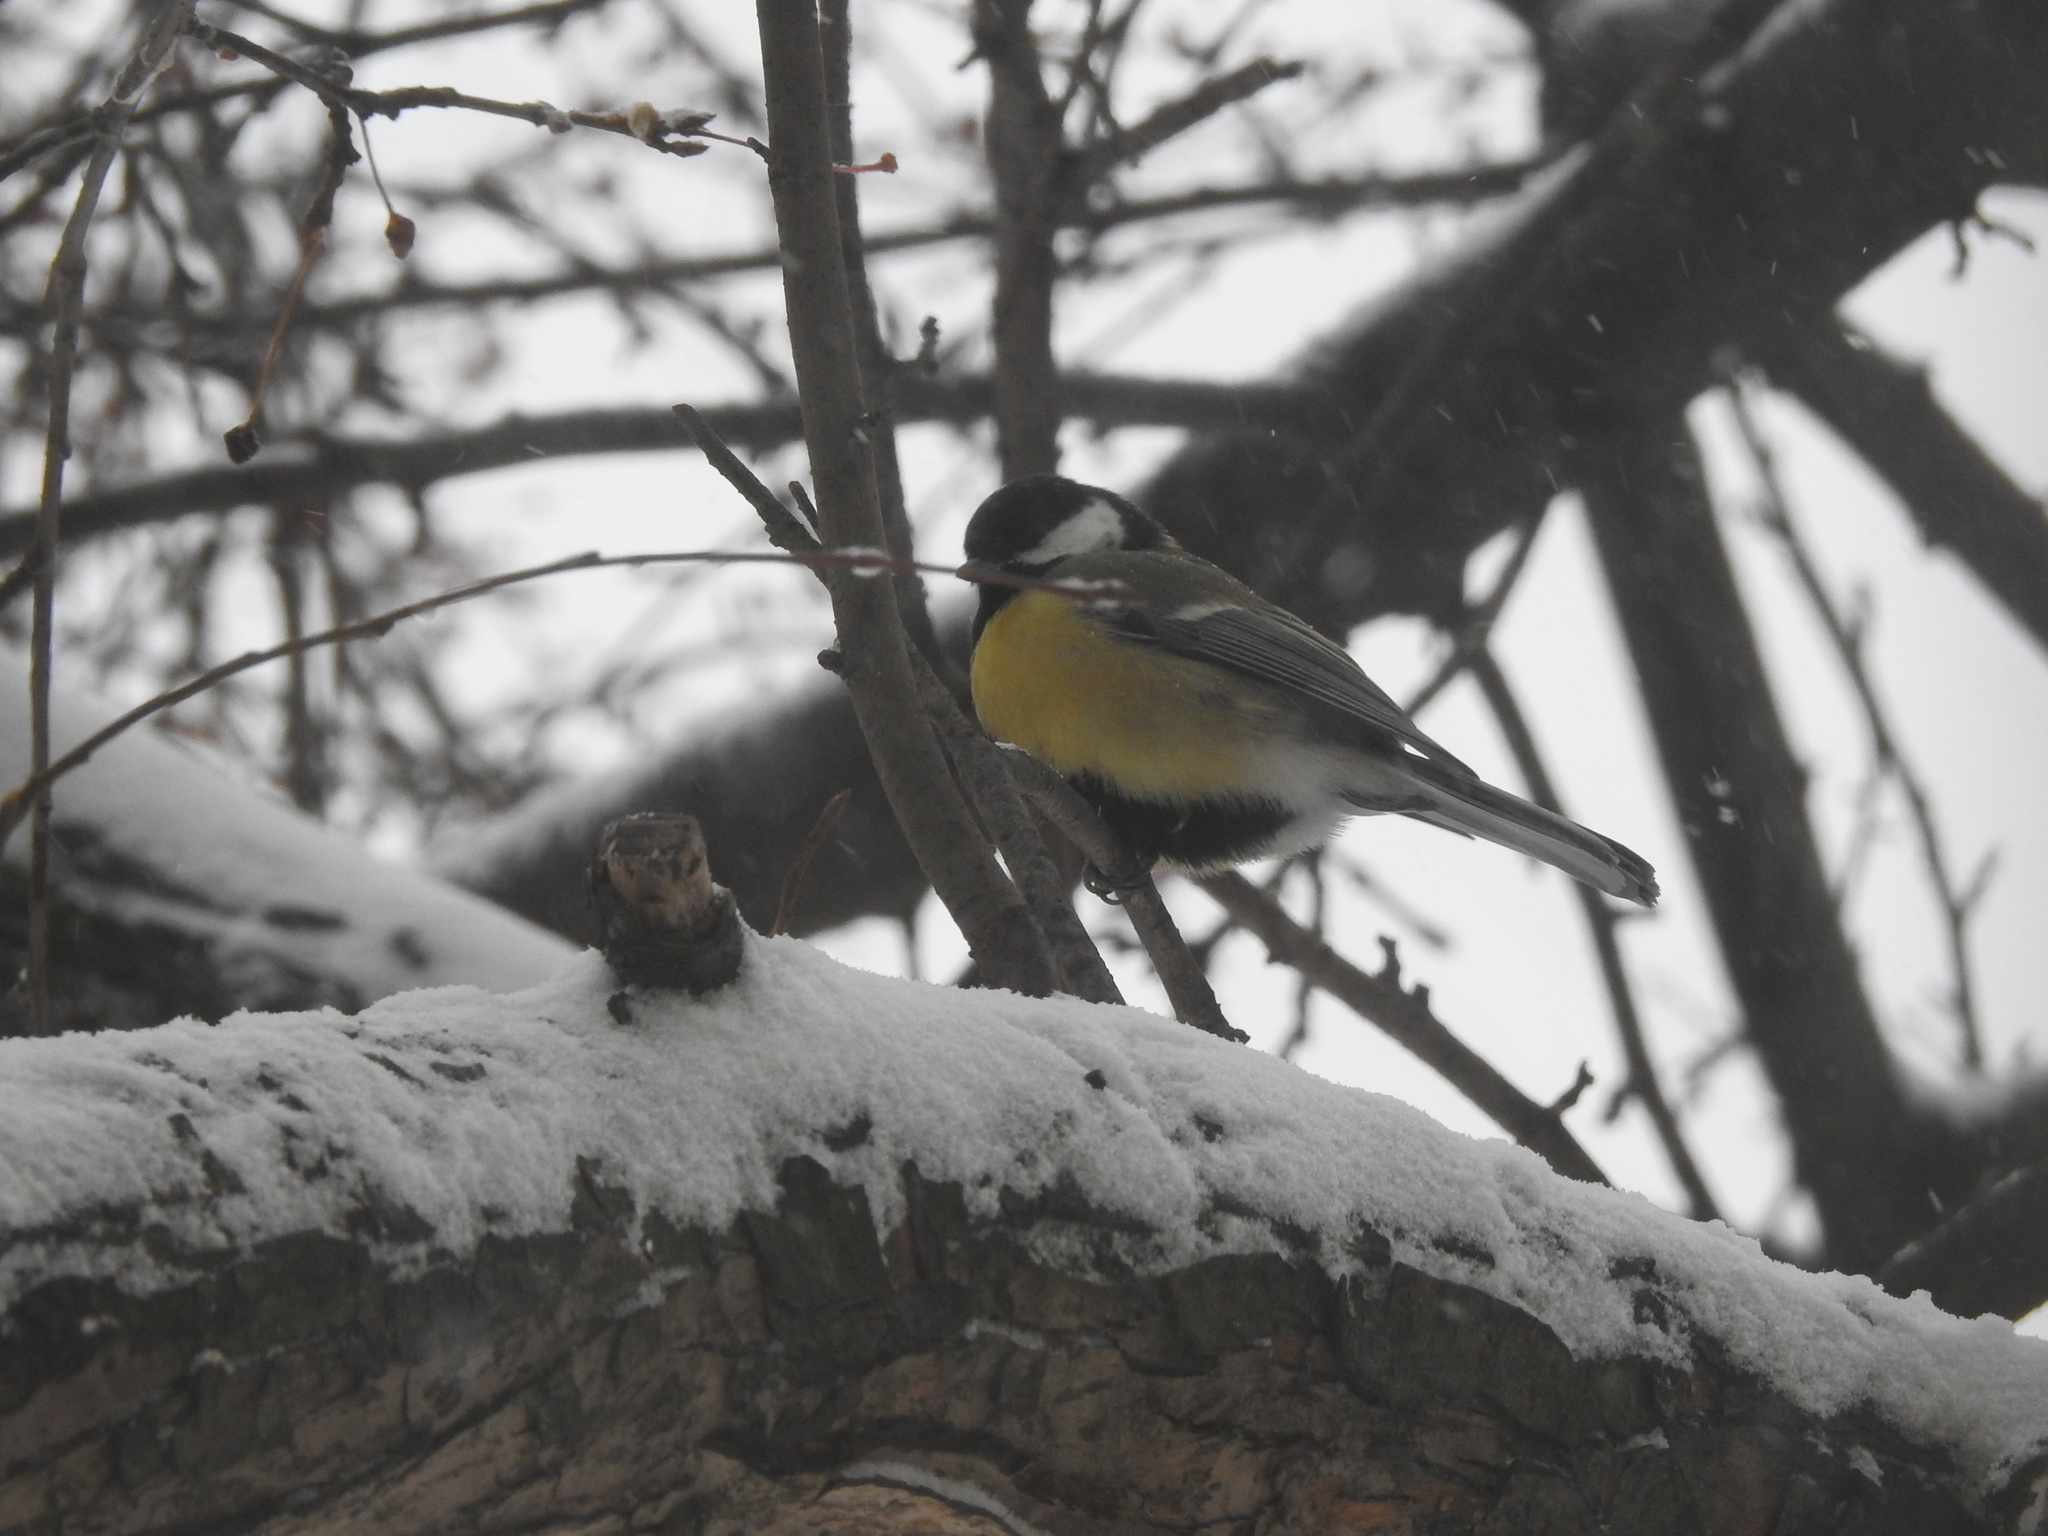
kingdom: Animalia
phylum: Chordata
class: Aves
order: Passeriformes
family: Paridae
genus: Parus
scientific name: Parus major
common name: Great tit
